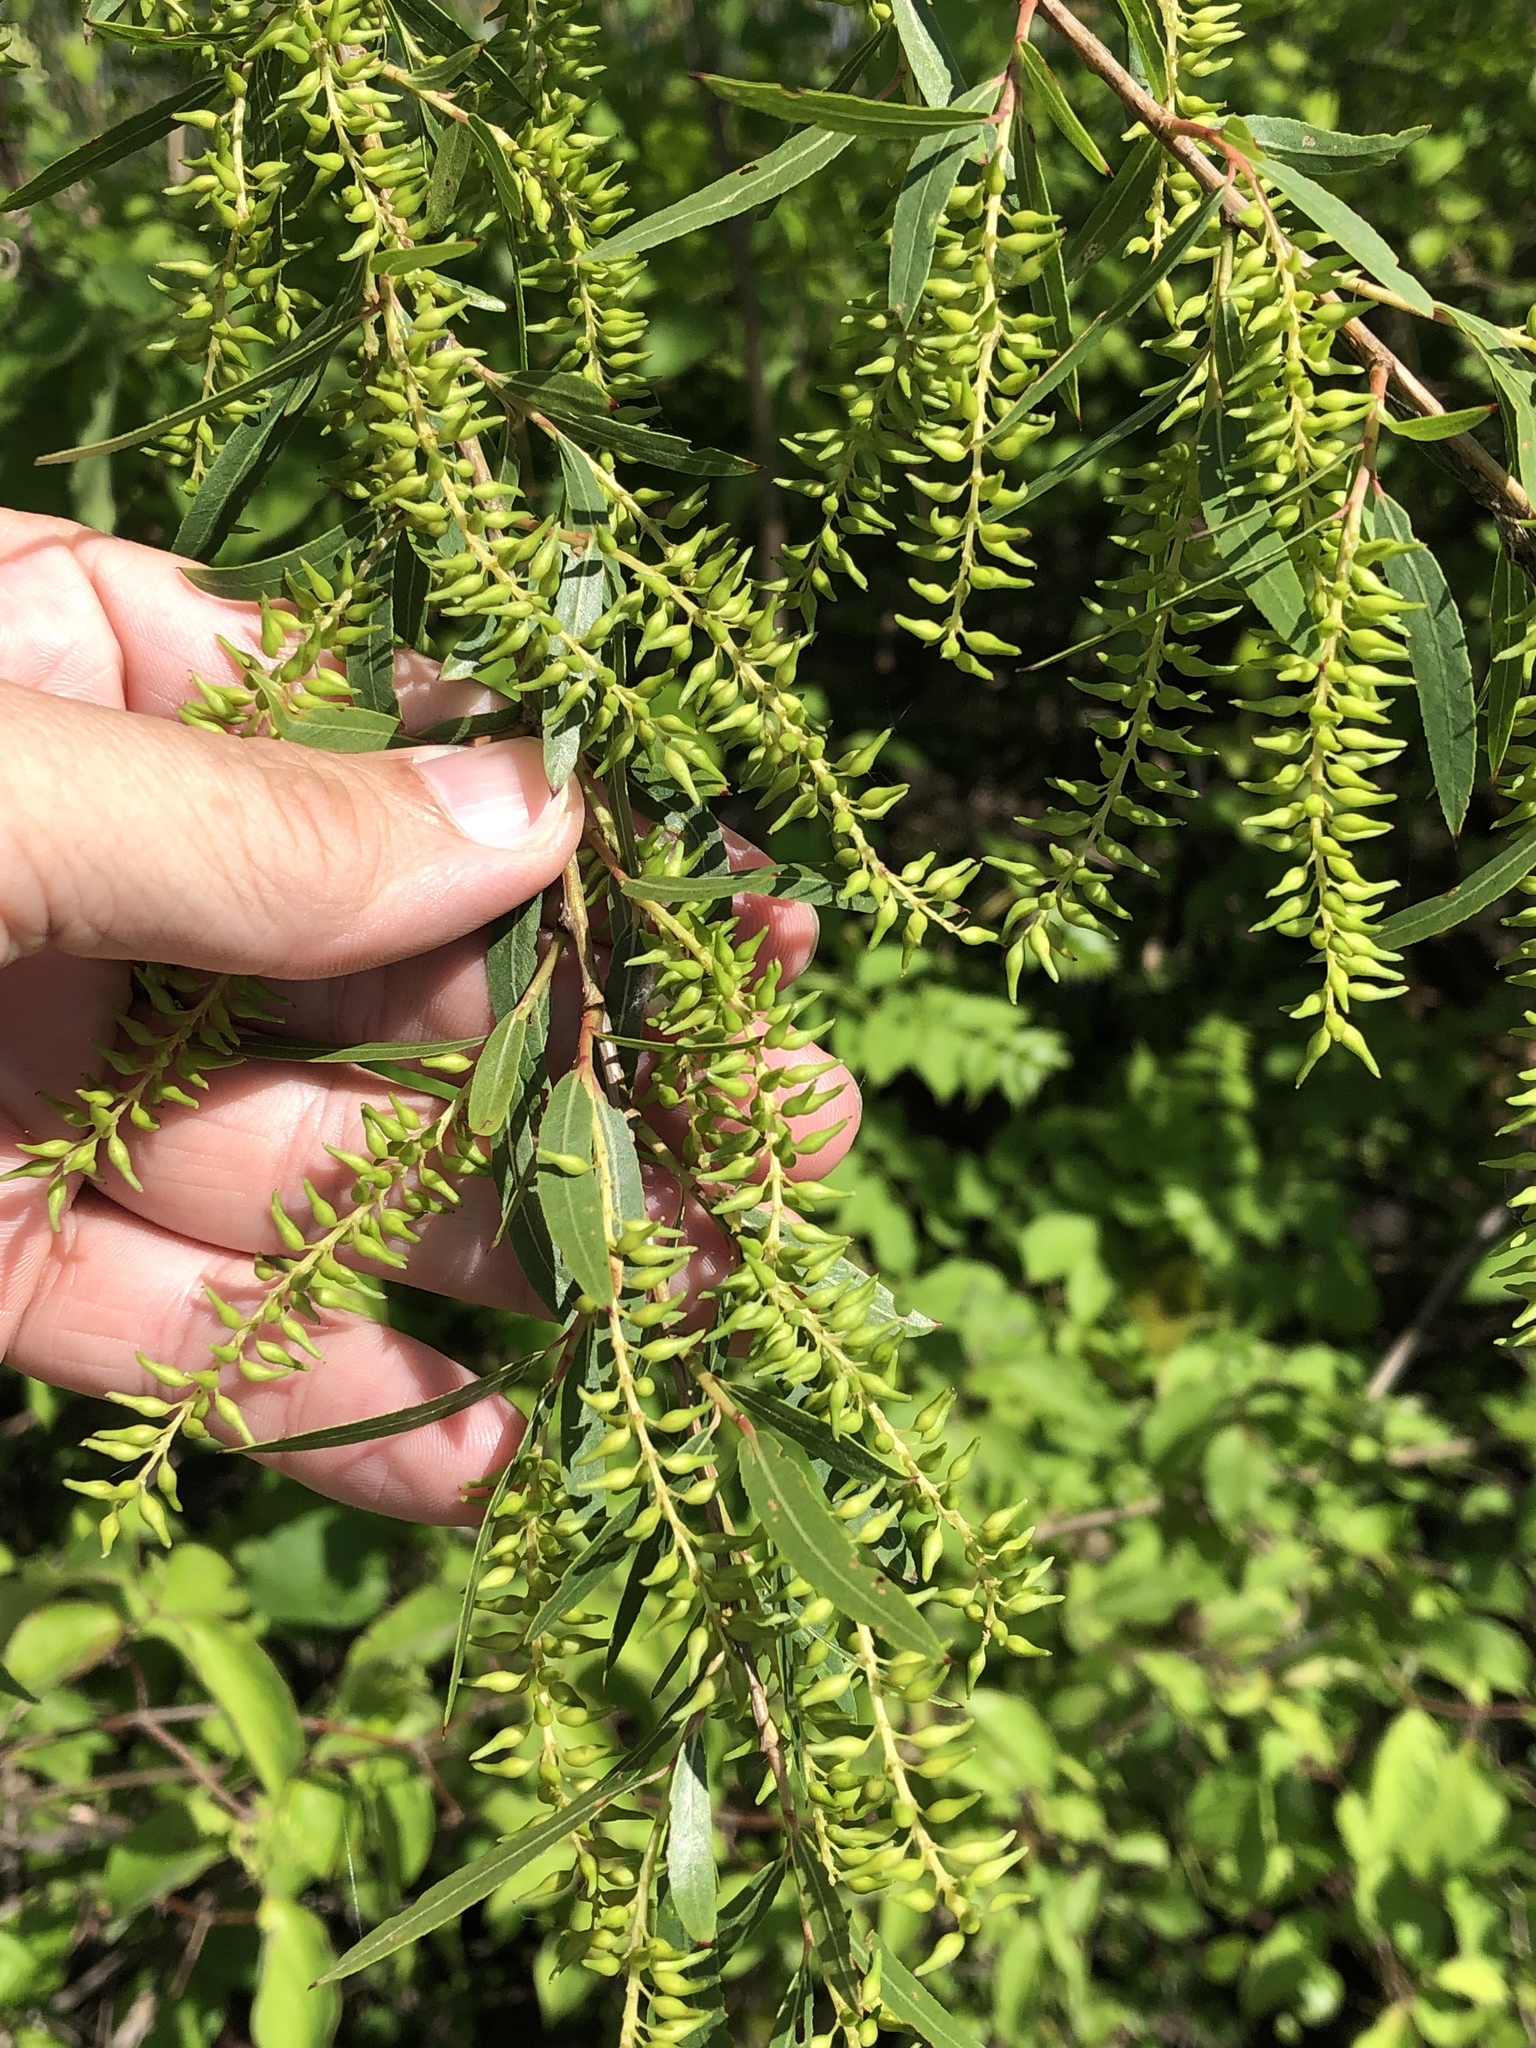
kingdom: Plantae
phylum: Tracheophyta
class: Magnoliopsida
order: Malpighiales
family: Salicaceae
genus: Salix
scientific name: Salix nigra
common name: Black willow
